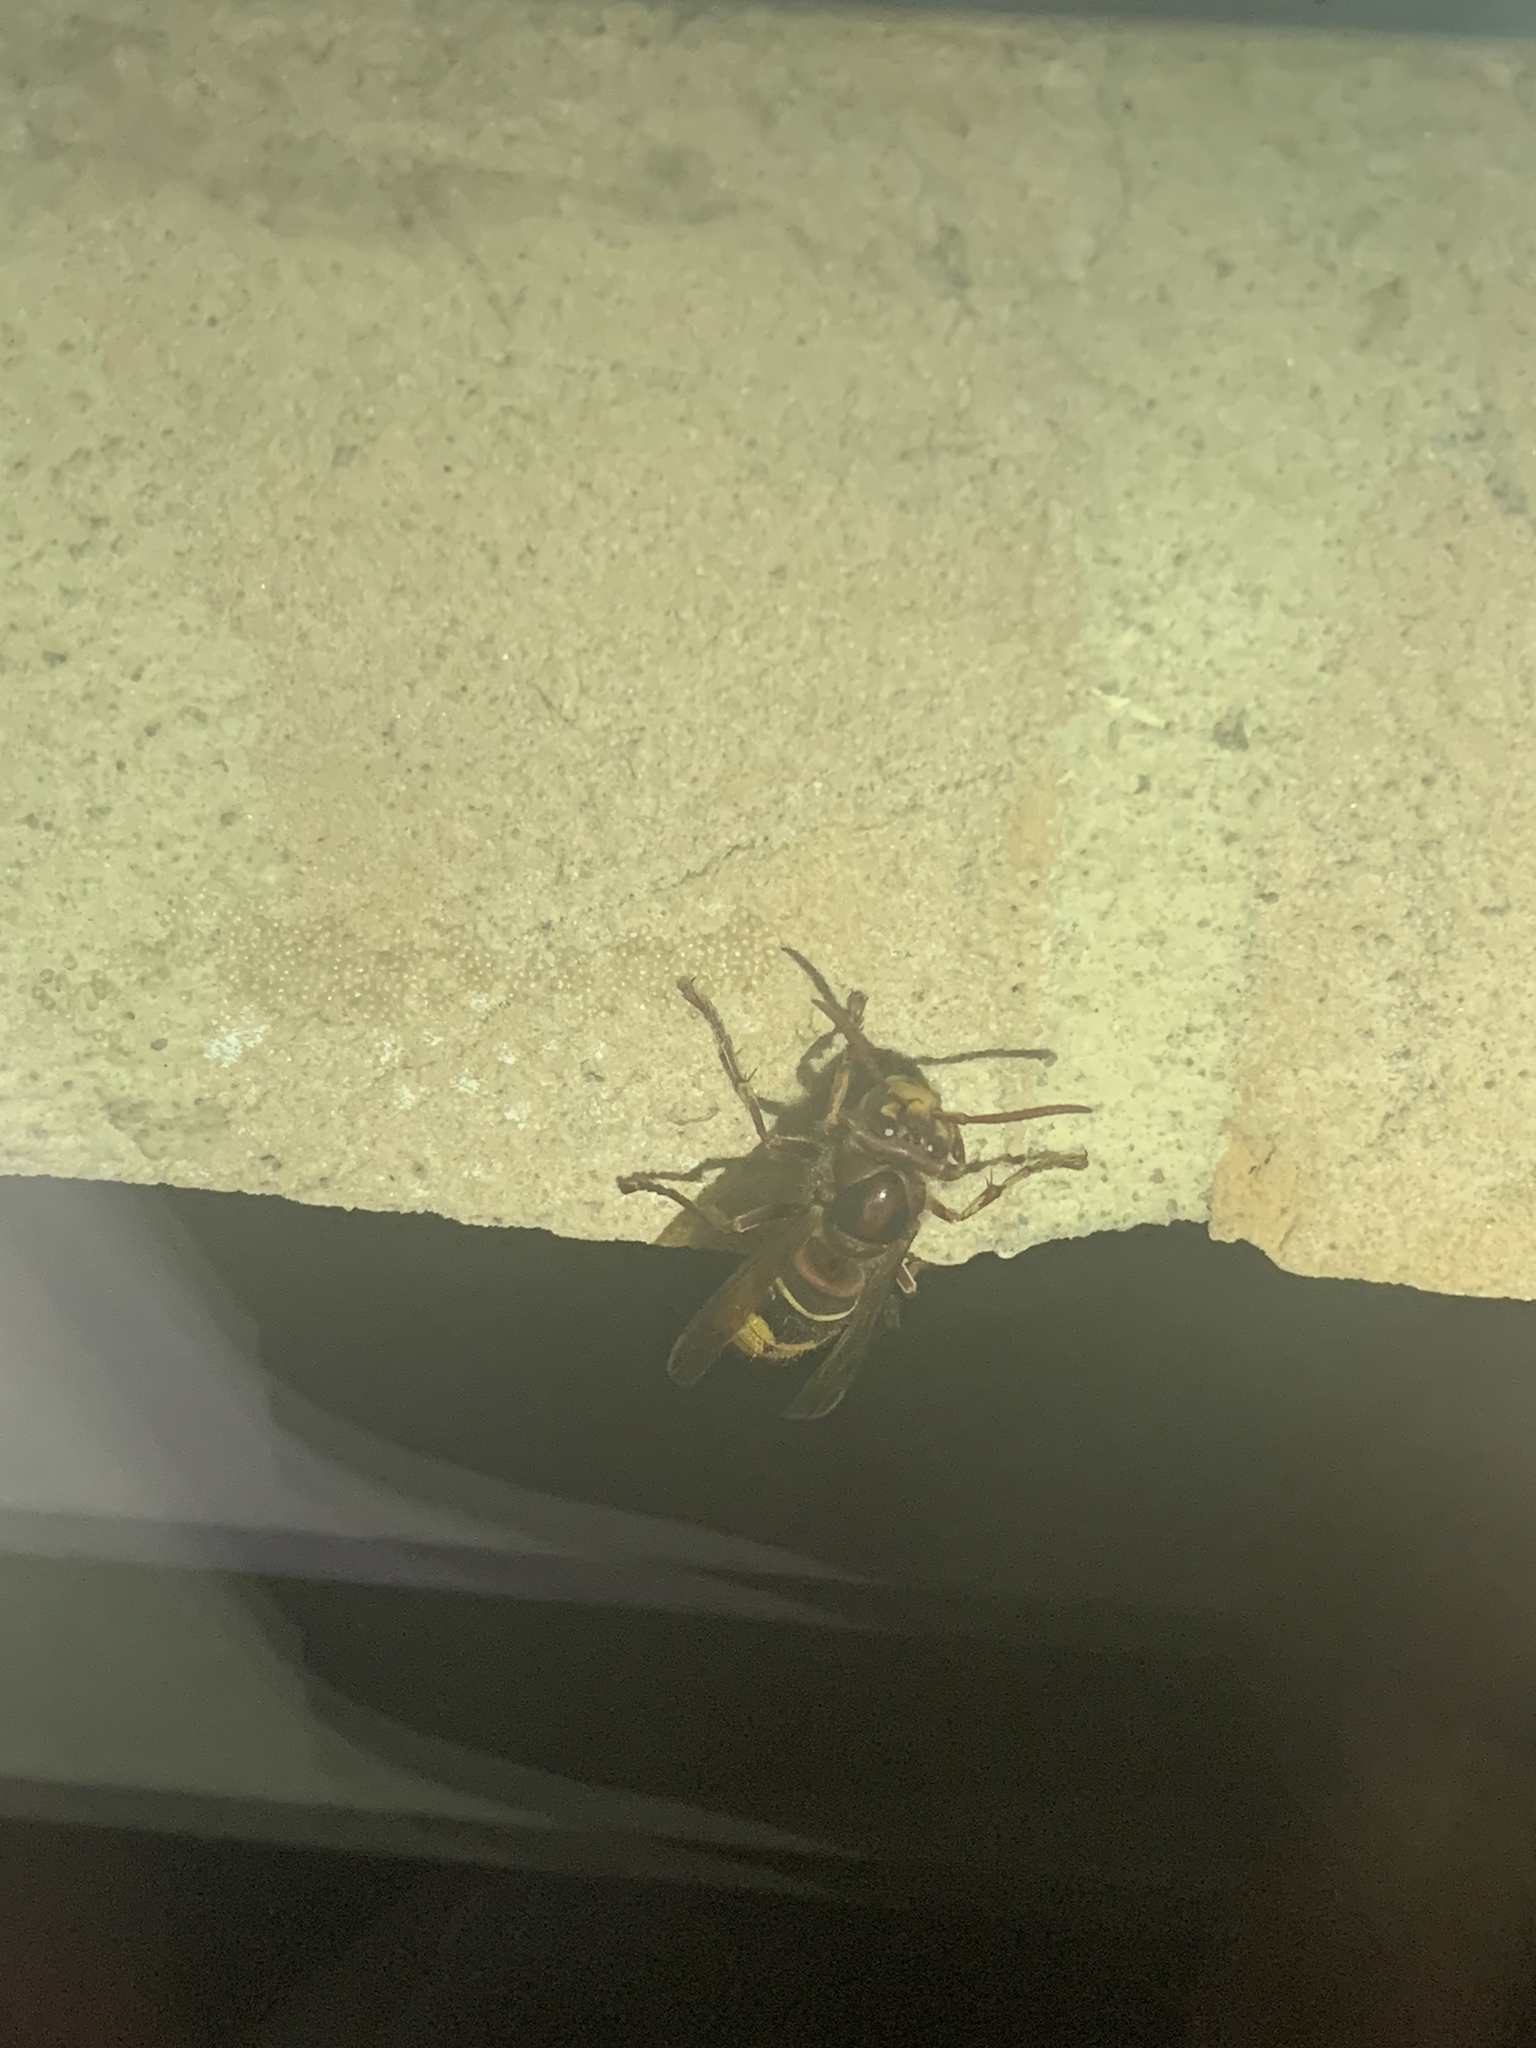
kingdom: Animalia
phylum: Arthropoda
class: Insecta
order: Hymenoptera
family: Vespidae
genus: Vespa
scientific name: Vespa crabro
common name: Hornet
